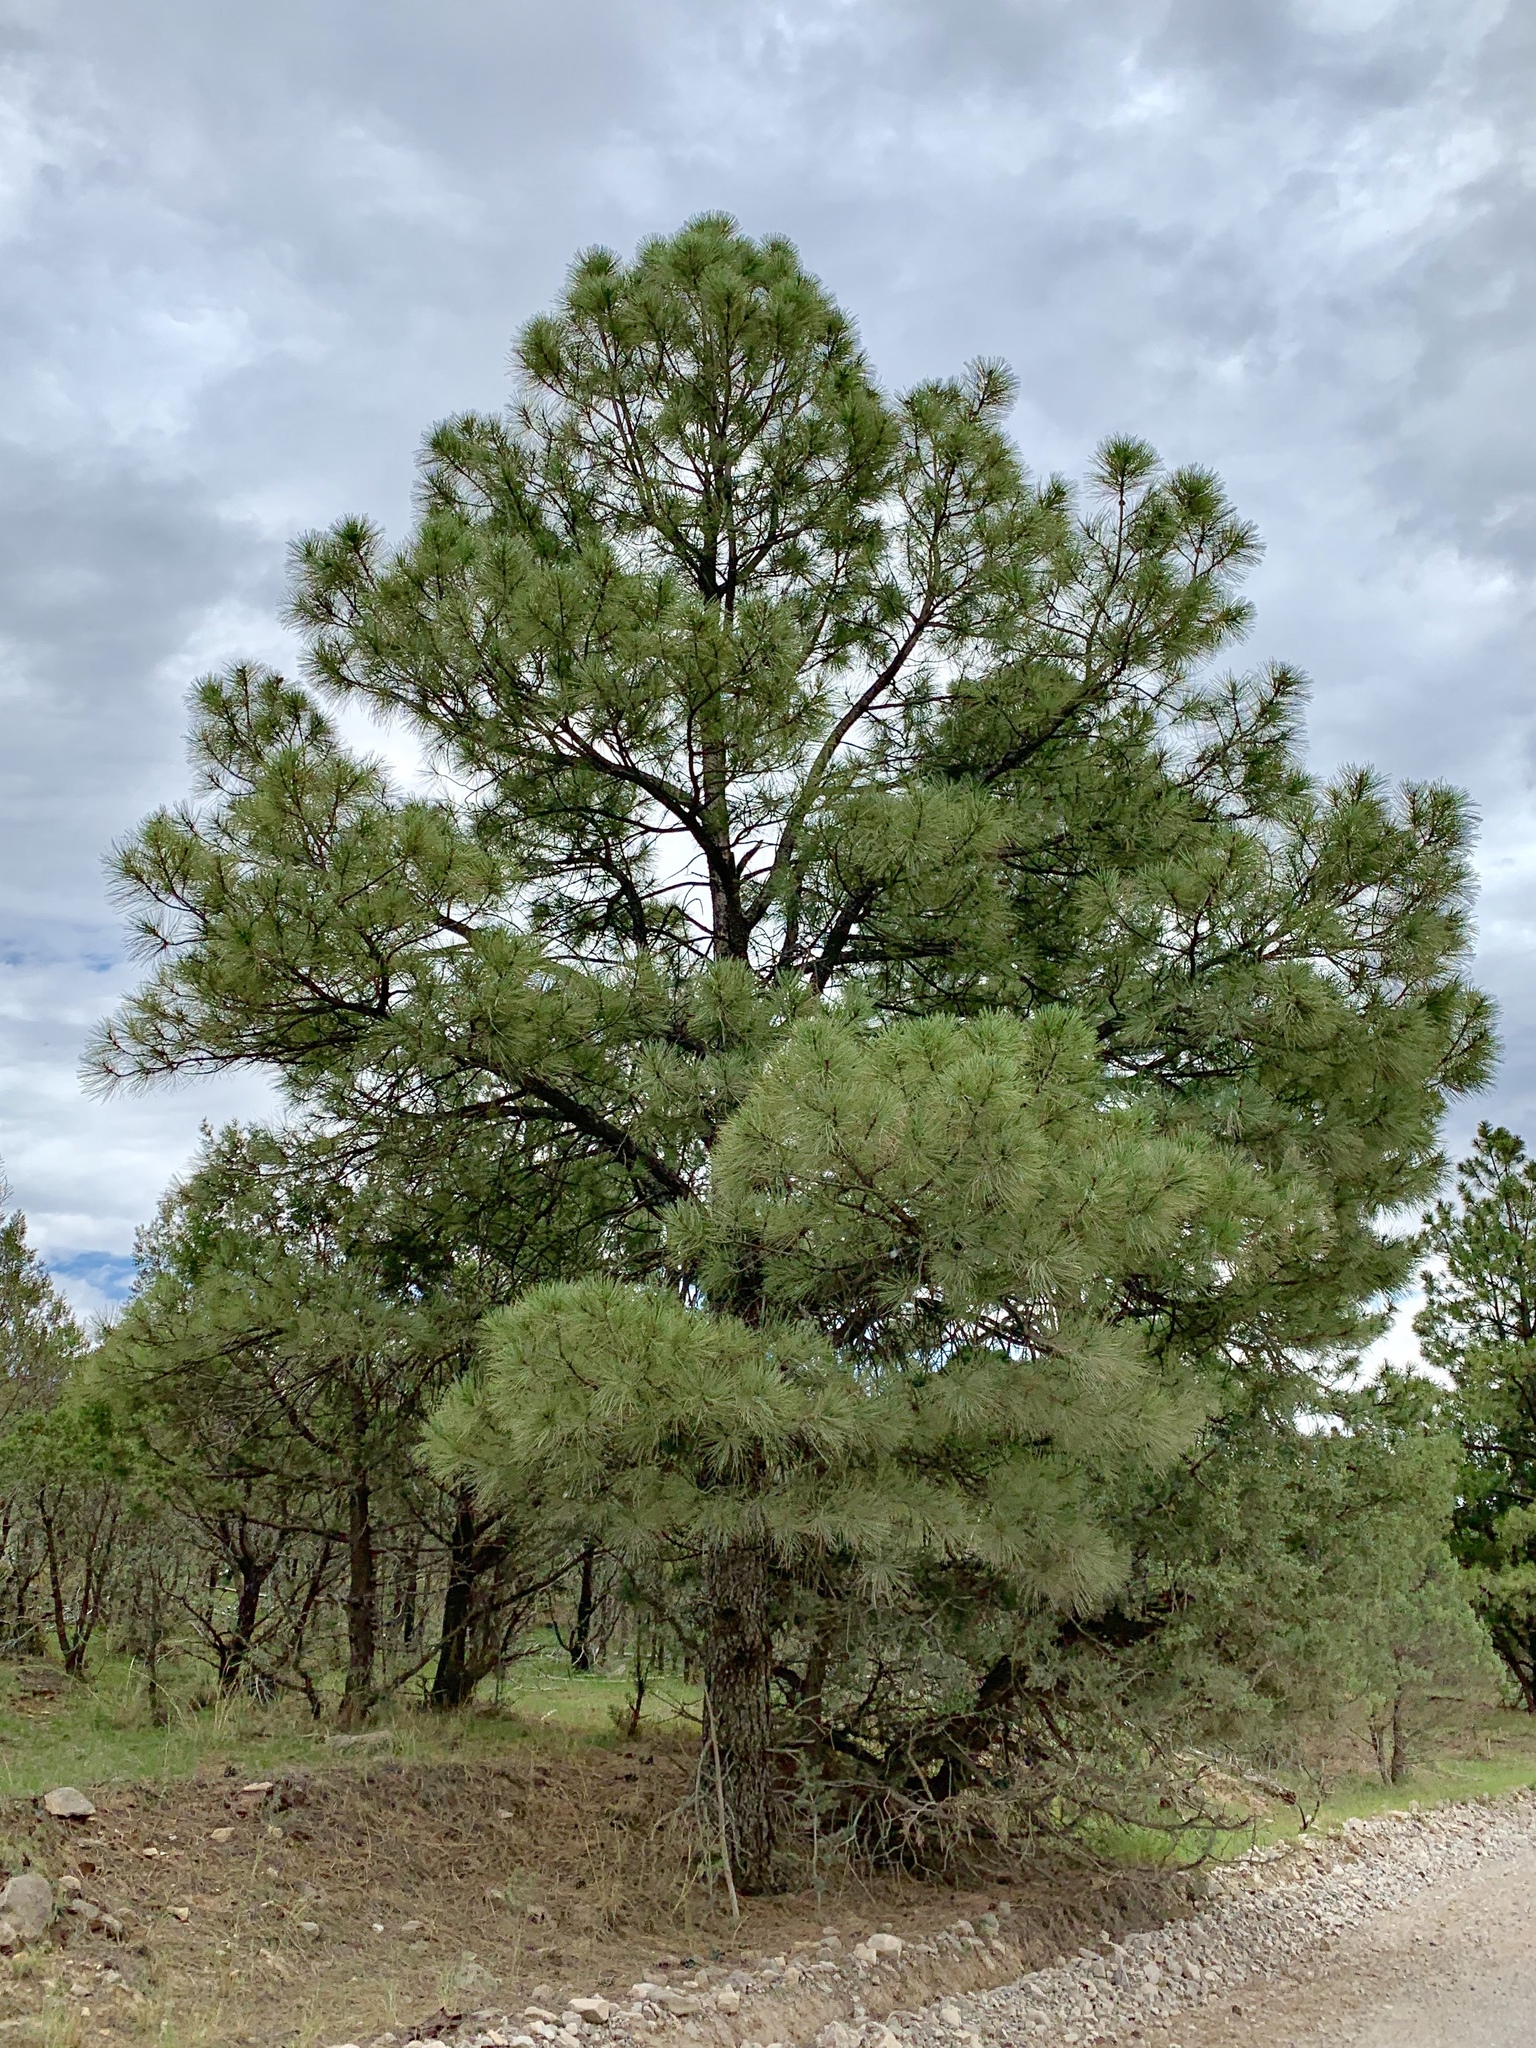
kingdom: Plantae
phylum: Tracheophyta
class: Pinopsida
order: Pinales
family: Pinaceae
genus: Pinus
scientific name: Pinus ponderosa
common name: Western yellow-pine
